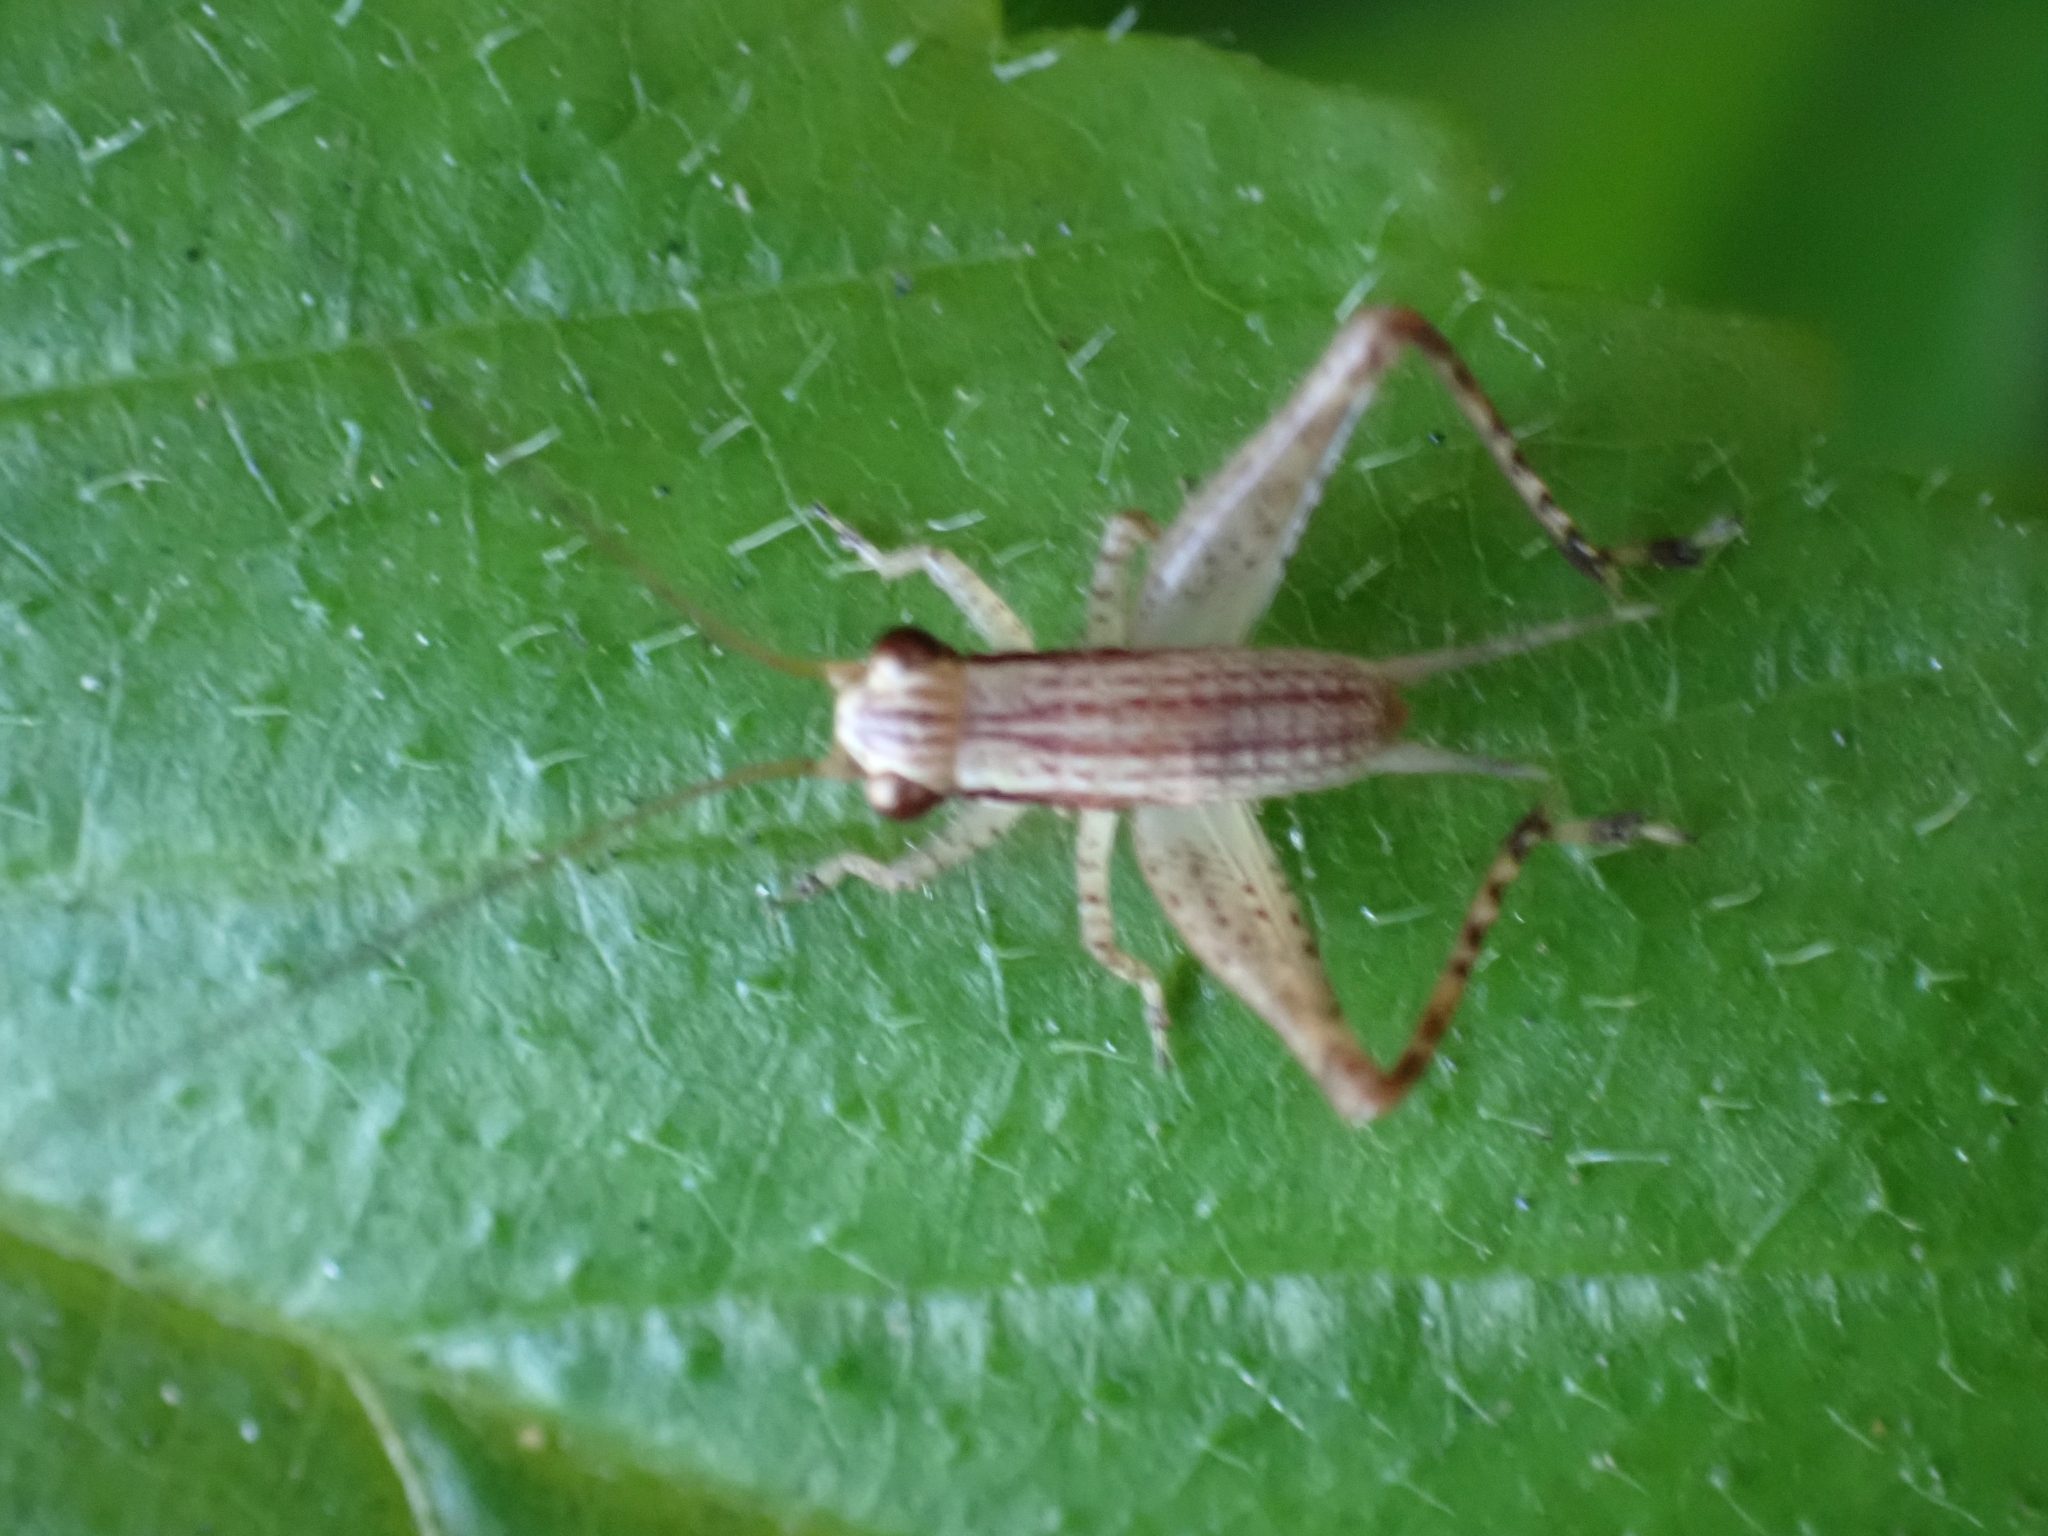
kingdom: Animalia
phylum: Arthropoda
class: Insecta
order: Orthoptera
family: Gryllidae
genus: Cardiodactylus
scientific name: Cardiodactylus novaeguineae
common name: Sad cricket
